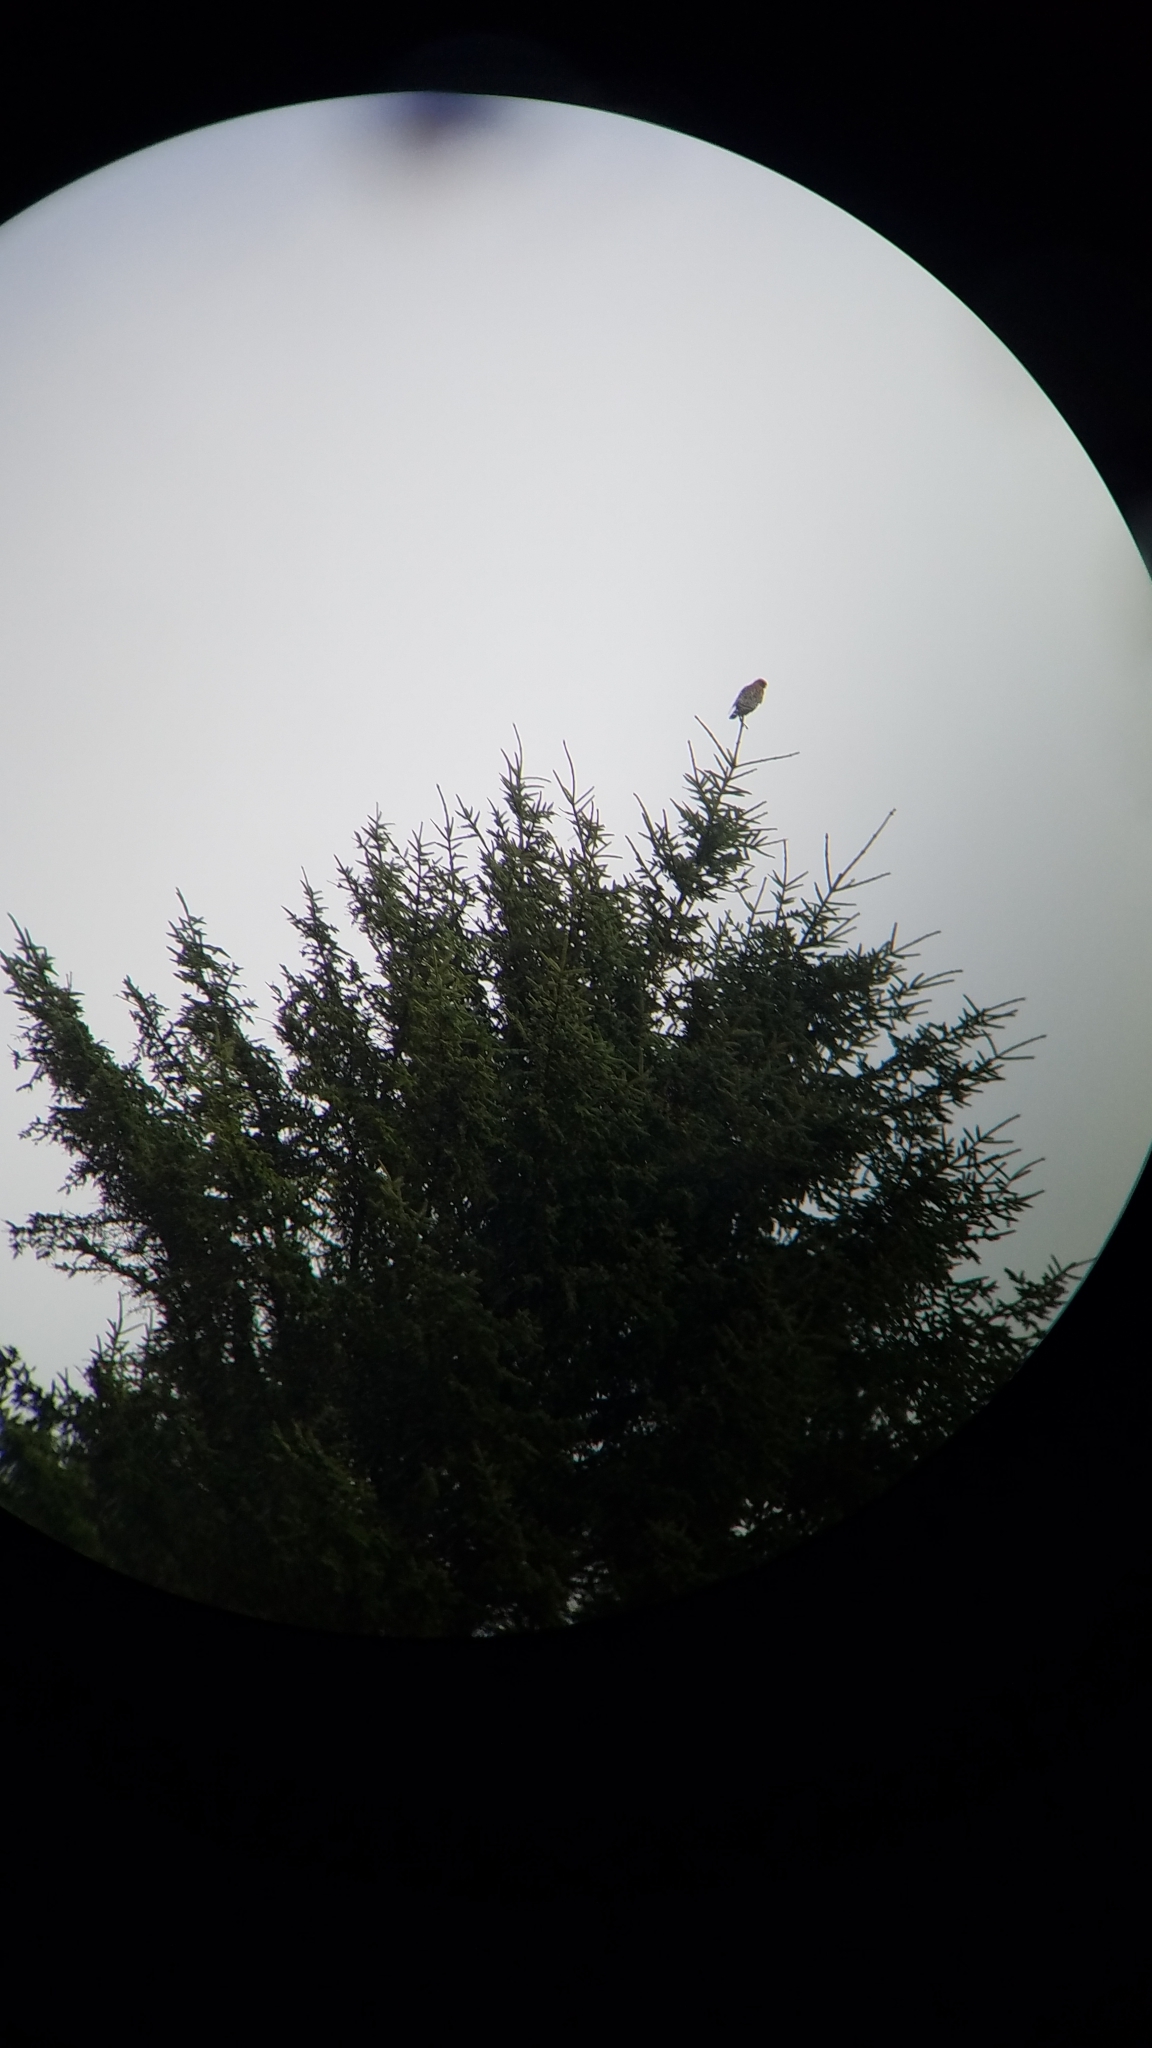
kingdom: Animalia
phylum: Chordata
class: Aves
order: Accipitriformes
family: Accipitridae
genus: Buteo
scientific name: Buteo lineatus
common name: Red-shouldered hawk
